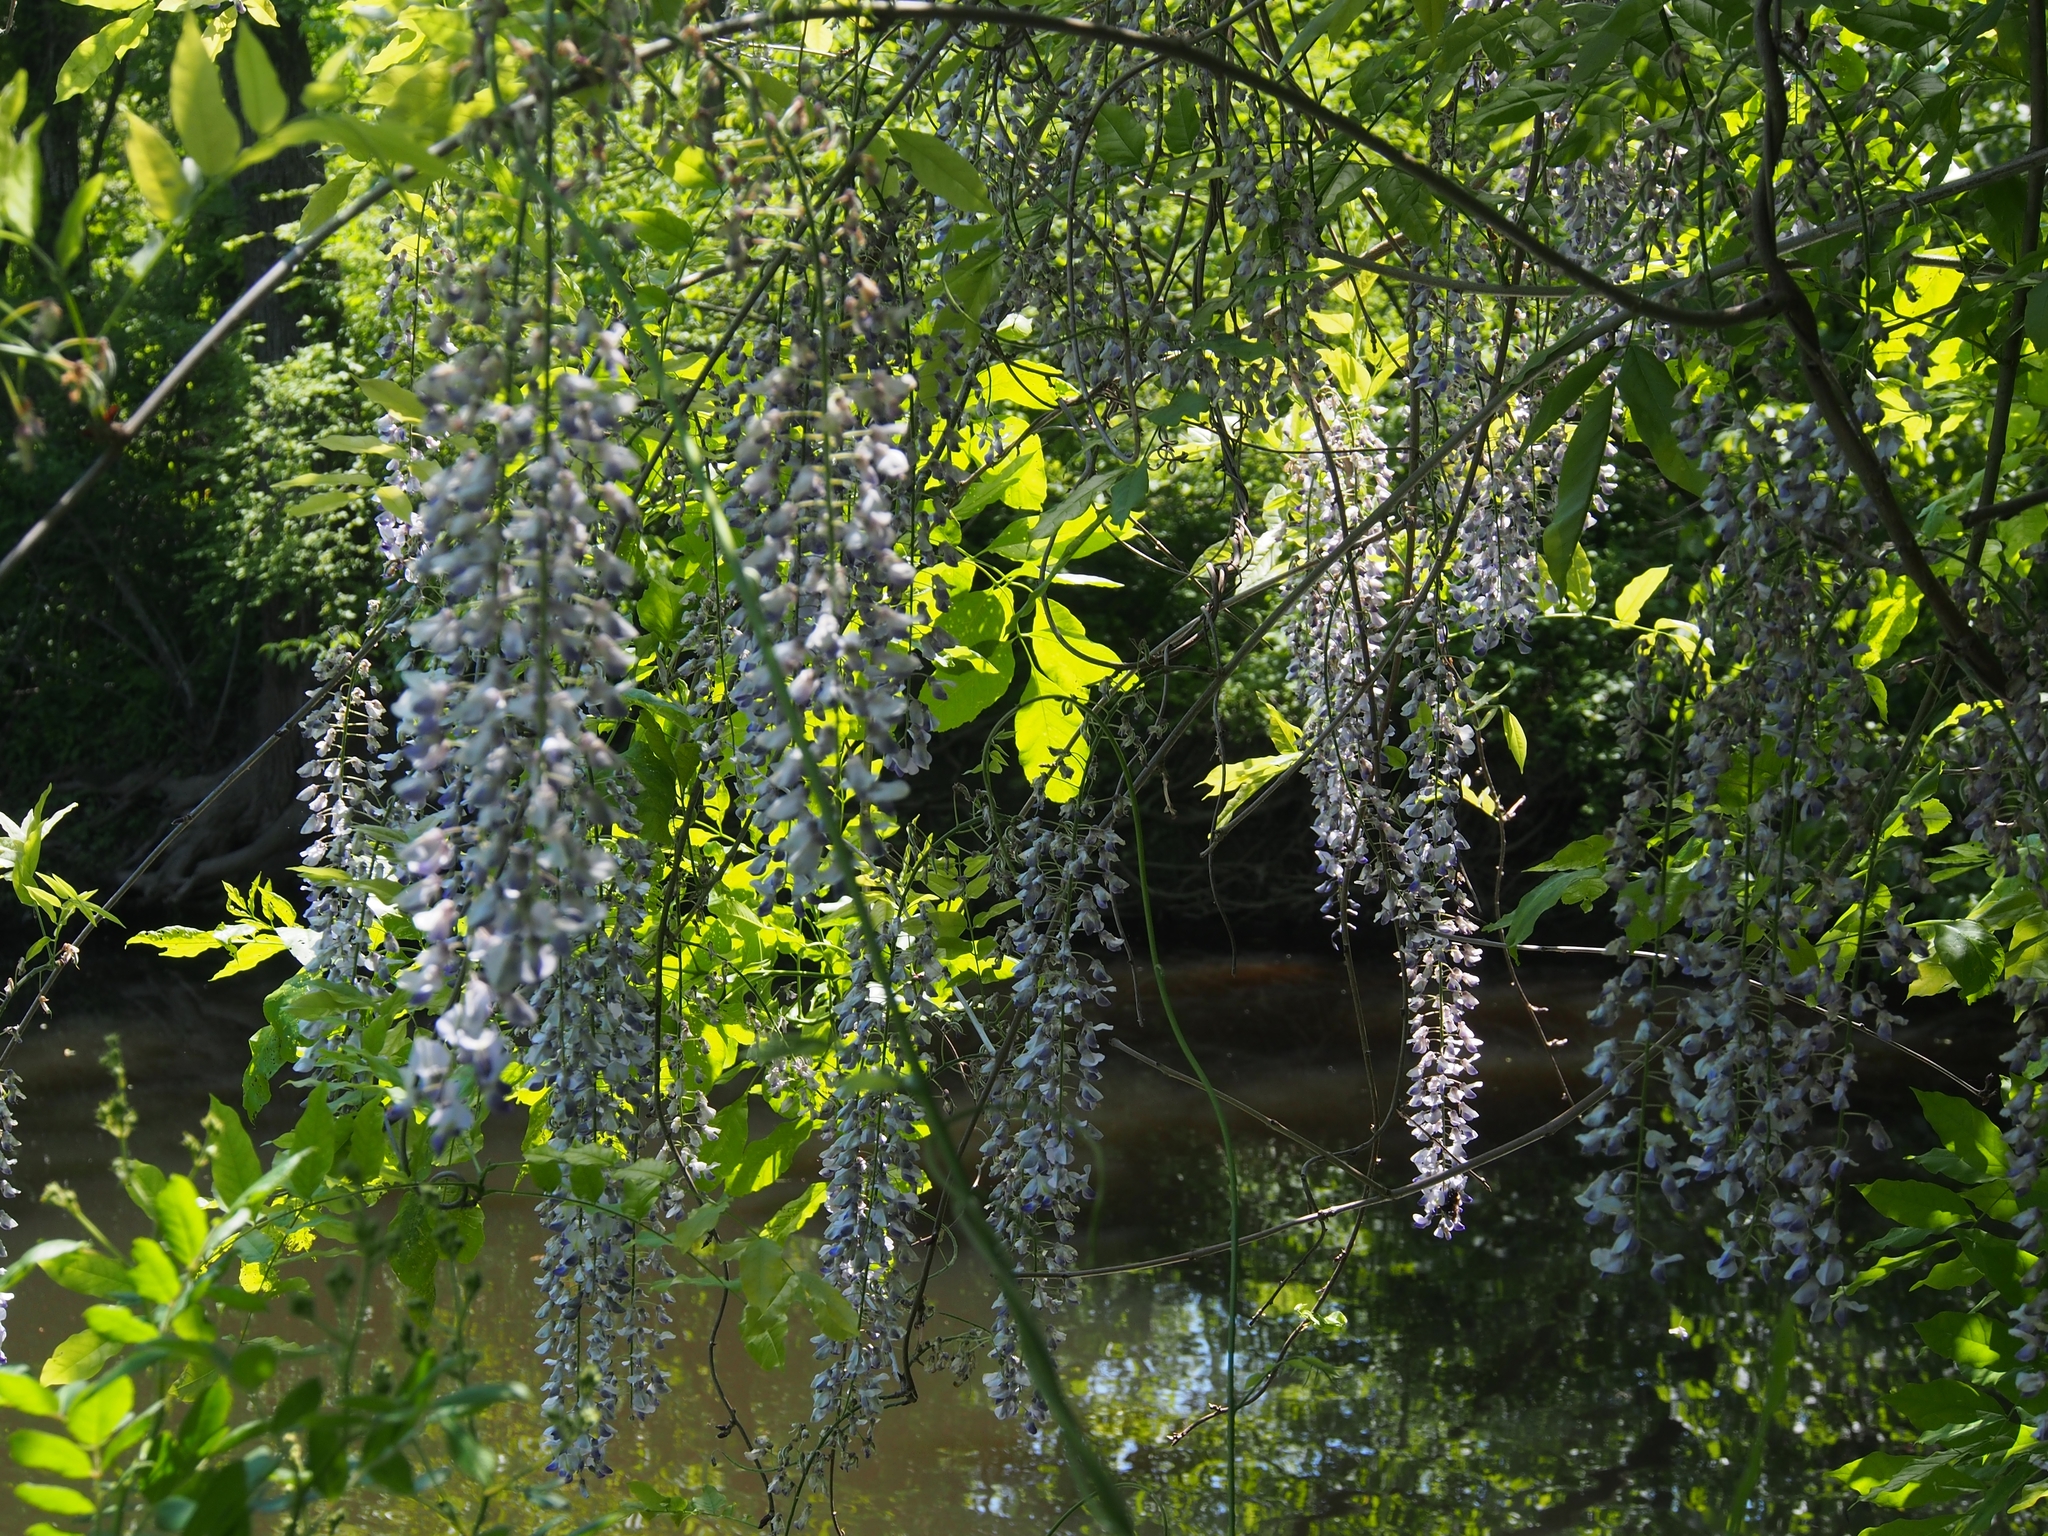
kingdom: Plantae
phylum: Tracheophyta
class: Magnoliopsida
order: Fabales
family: Fabaceae
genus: Wisteria
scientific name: Wisteria sinensis
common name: Chinese wisteria
